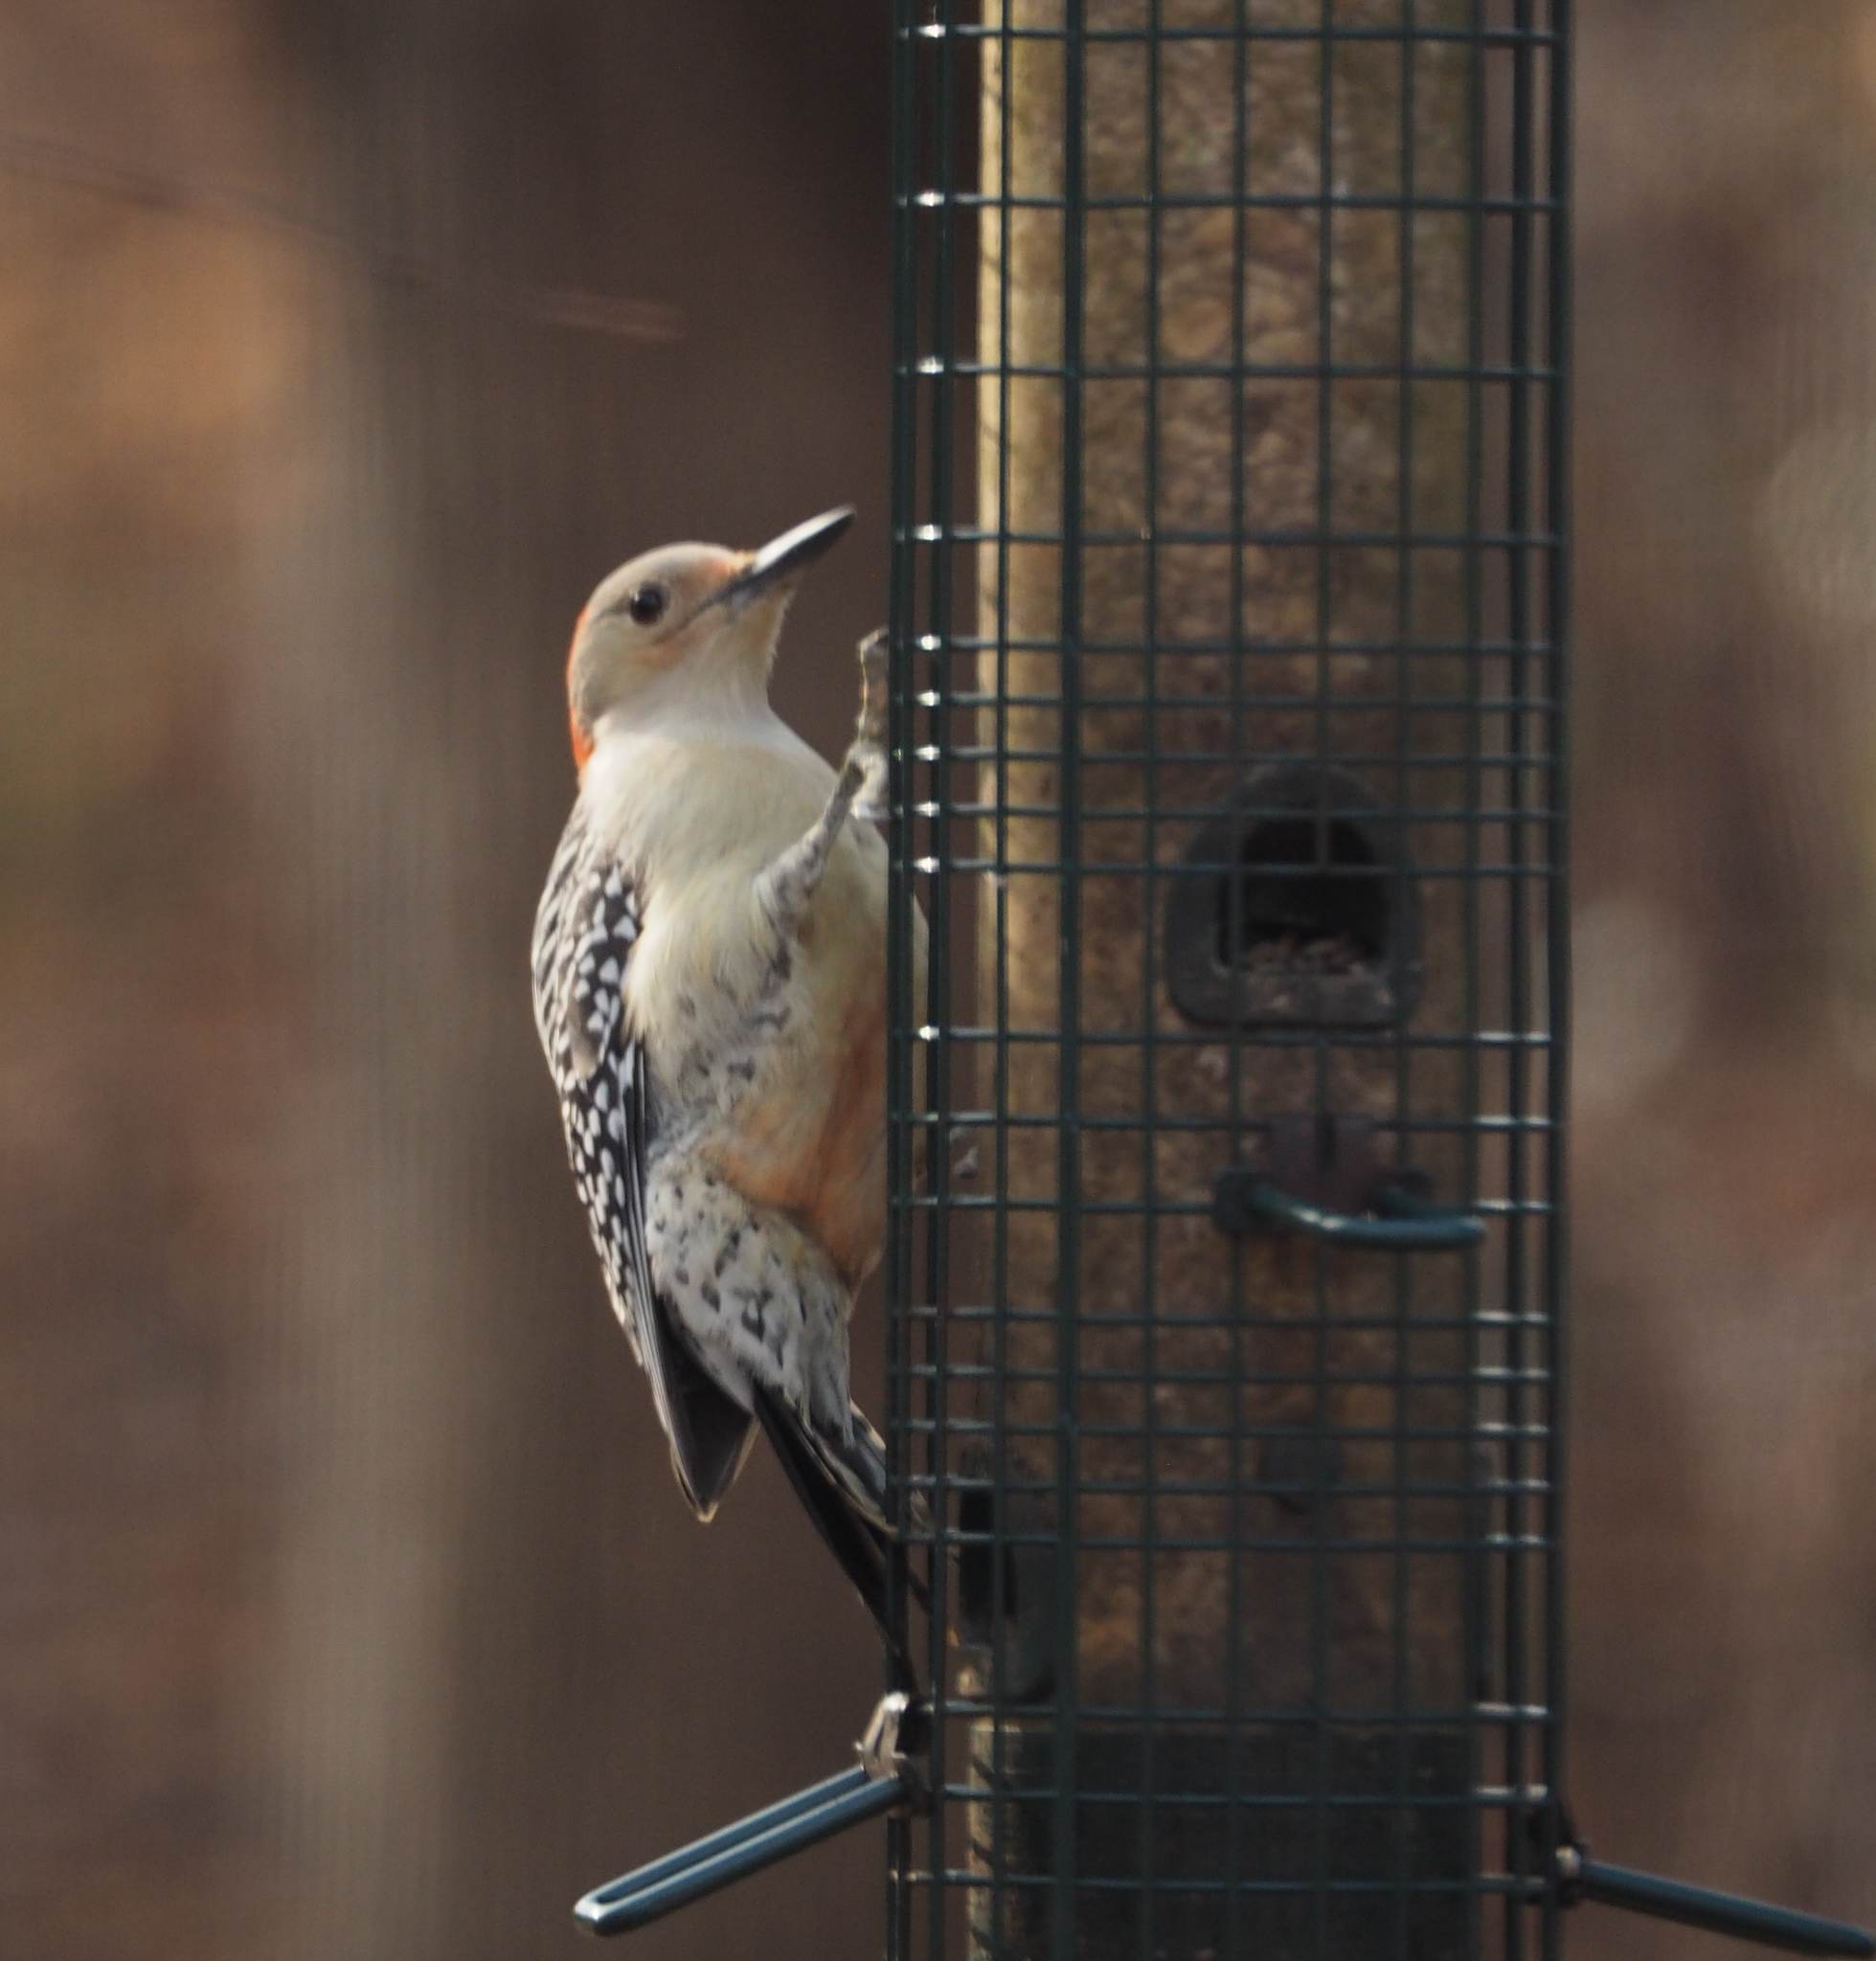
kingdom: Animalia
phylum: Chordata
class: Aves
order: Piciformes
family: Picidae
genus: Melanerpes
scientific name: Melanerpes carolinus
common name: Red-bellied woodpecker
